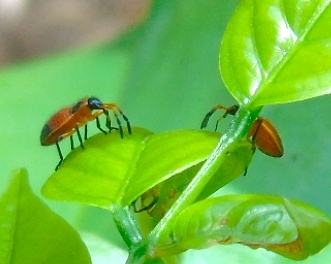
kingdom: Animalia
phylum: Arthropoda
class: Insecta
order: Hemiptera
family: Largidae
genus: Largus
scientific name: Largus
